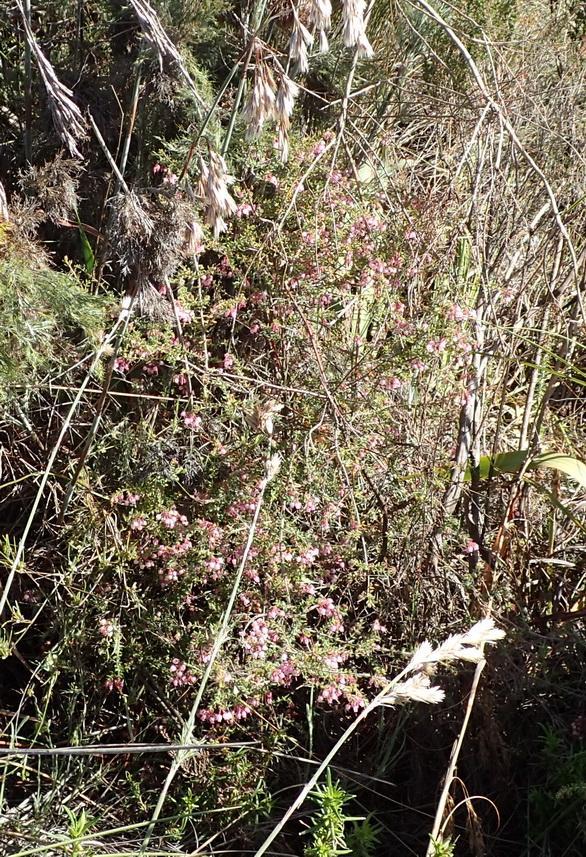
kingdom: Plantae
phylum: Tracheophyta
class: Magnoliopsida
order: Ericales
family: Ericaceae
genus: Erica
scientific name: Erica aneimena
